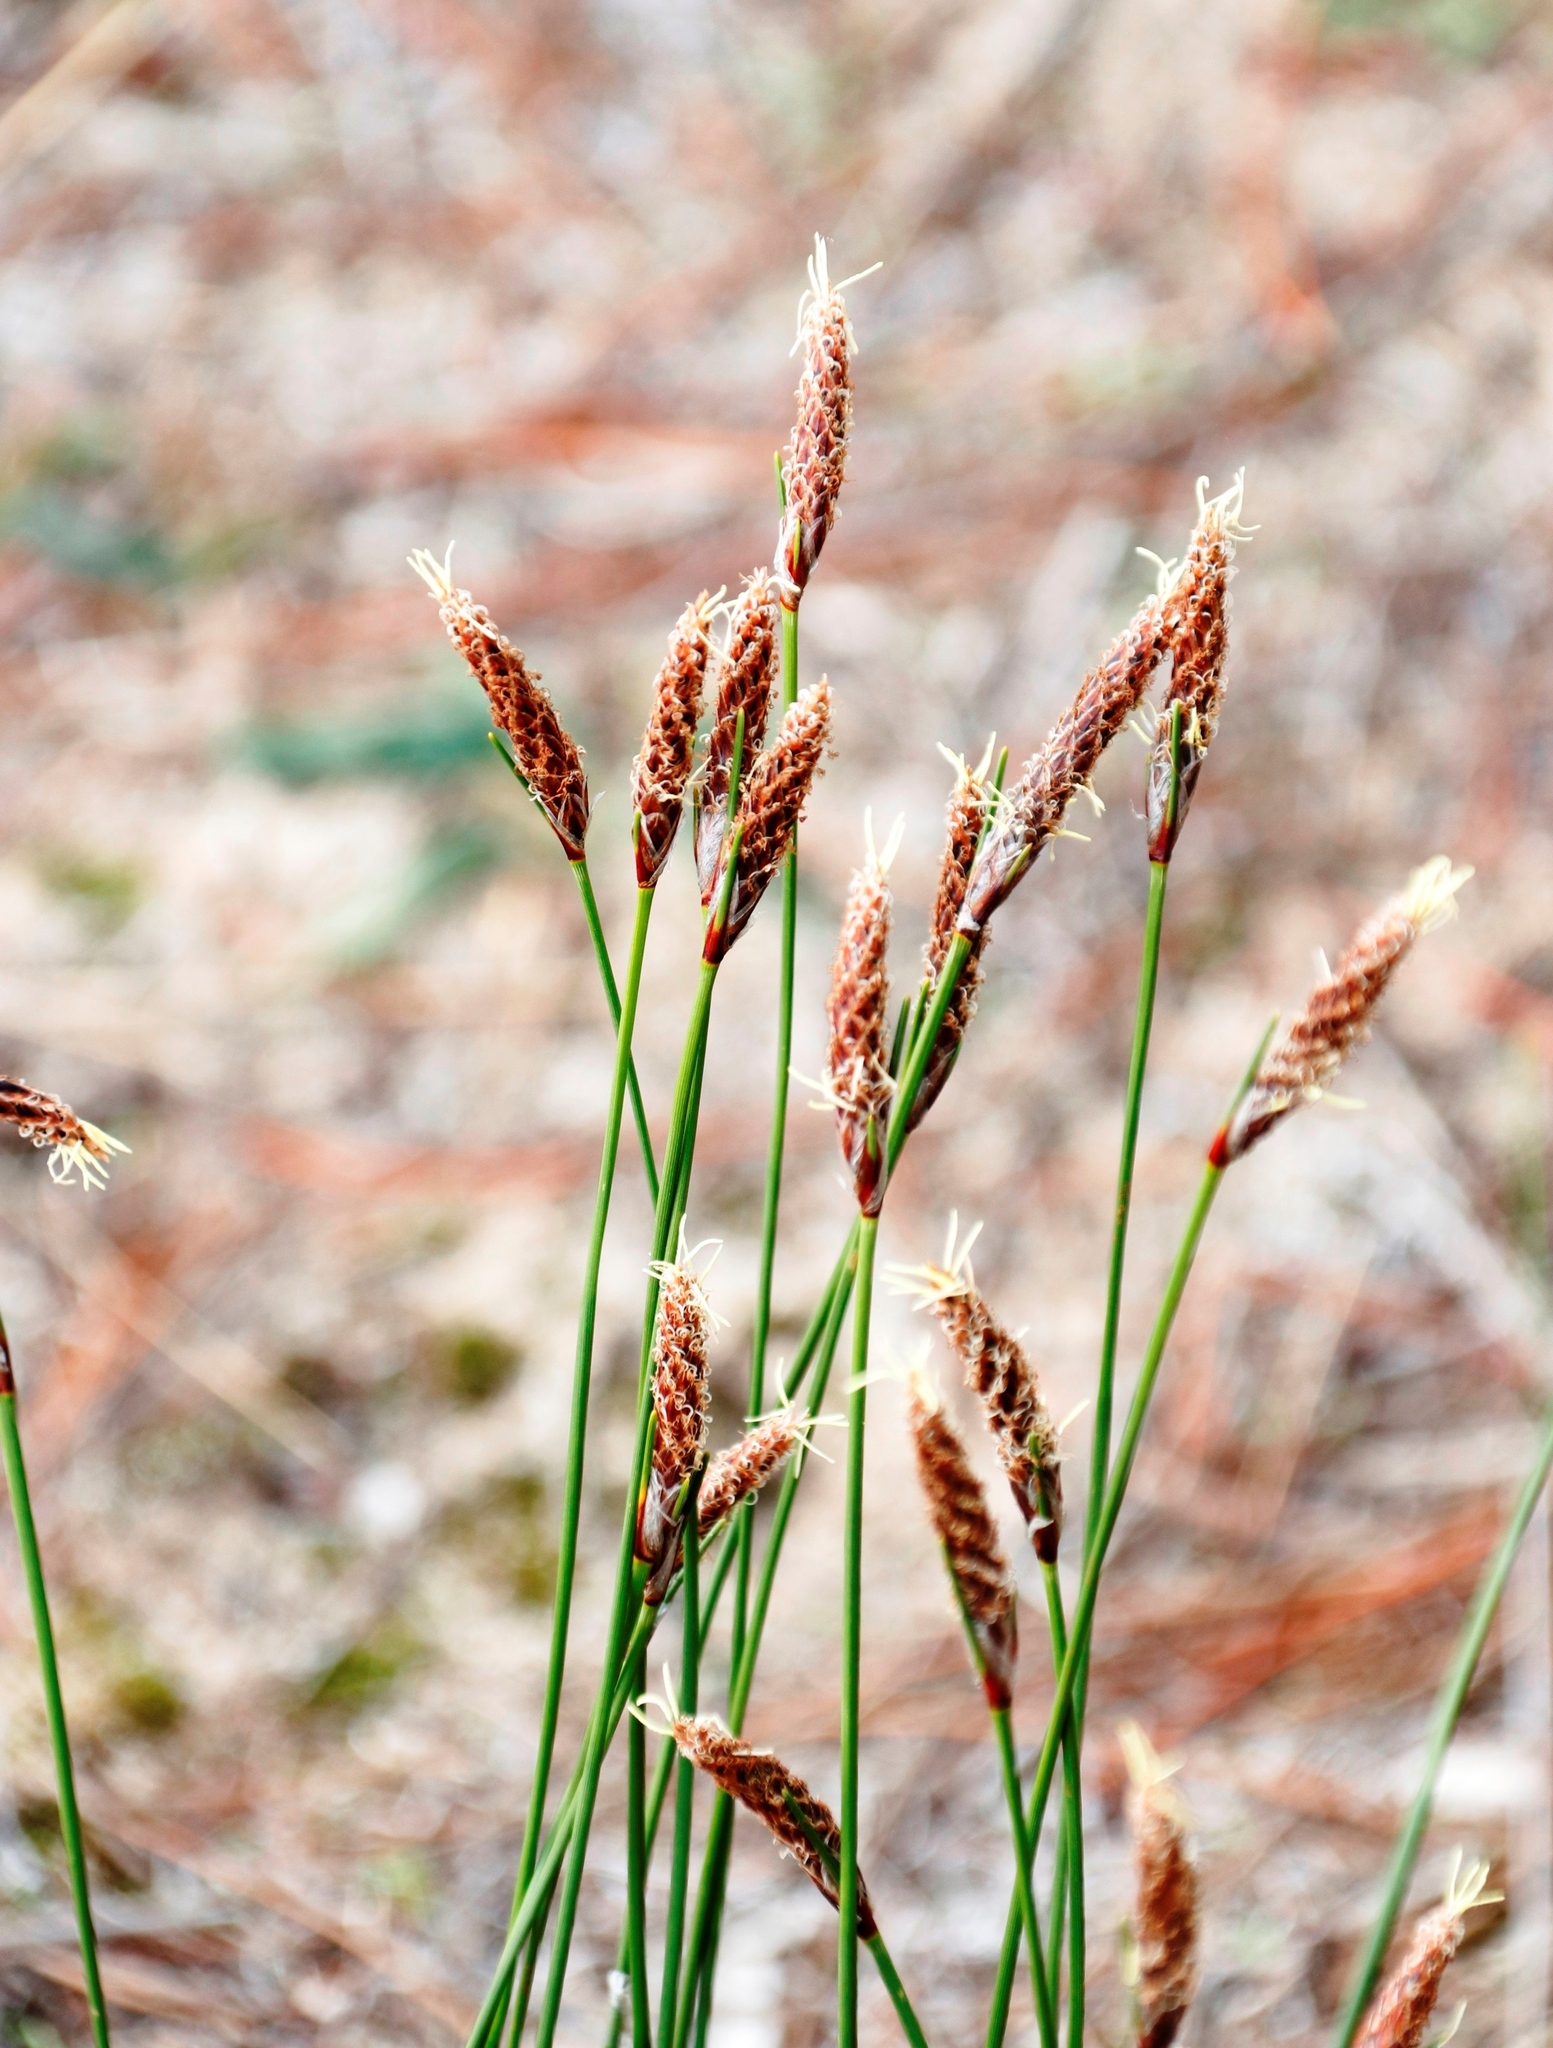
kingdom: Plantae
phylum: Tracheophyta
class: Liliopsida
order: Poales
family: Cyperaceae
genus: Ficinia
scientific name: Ficinia deusta
